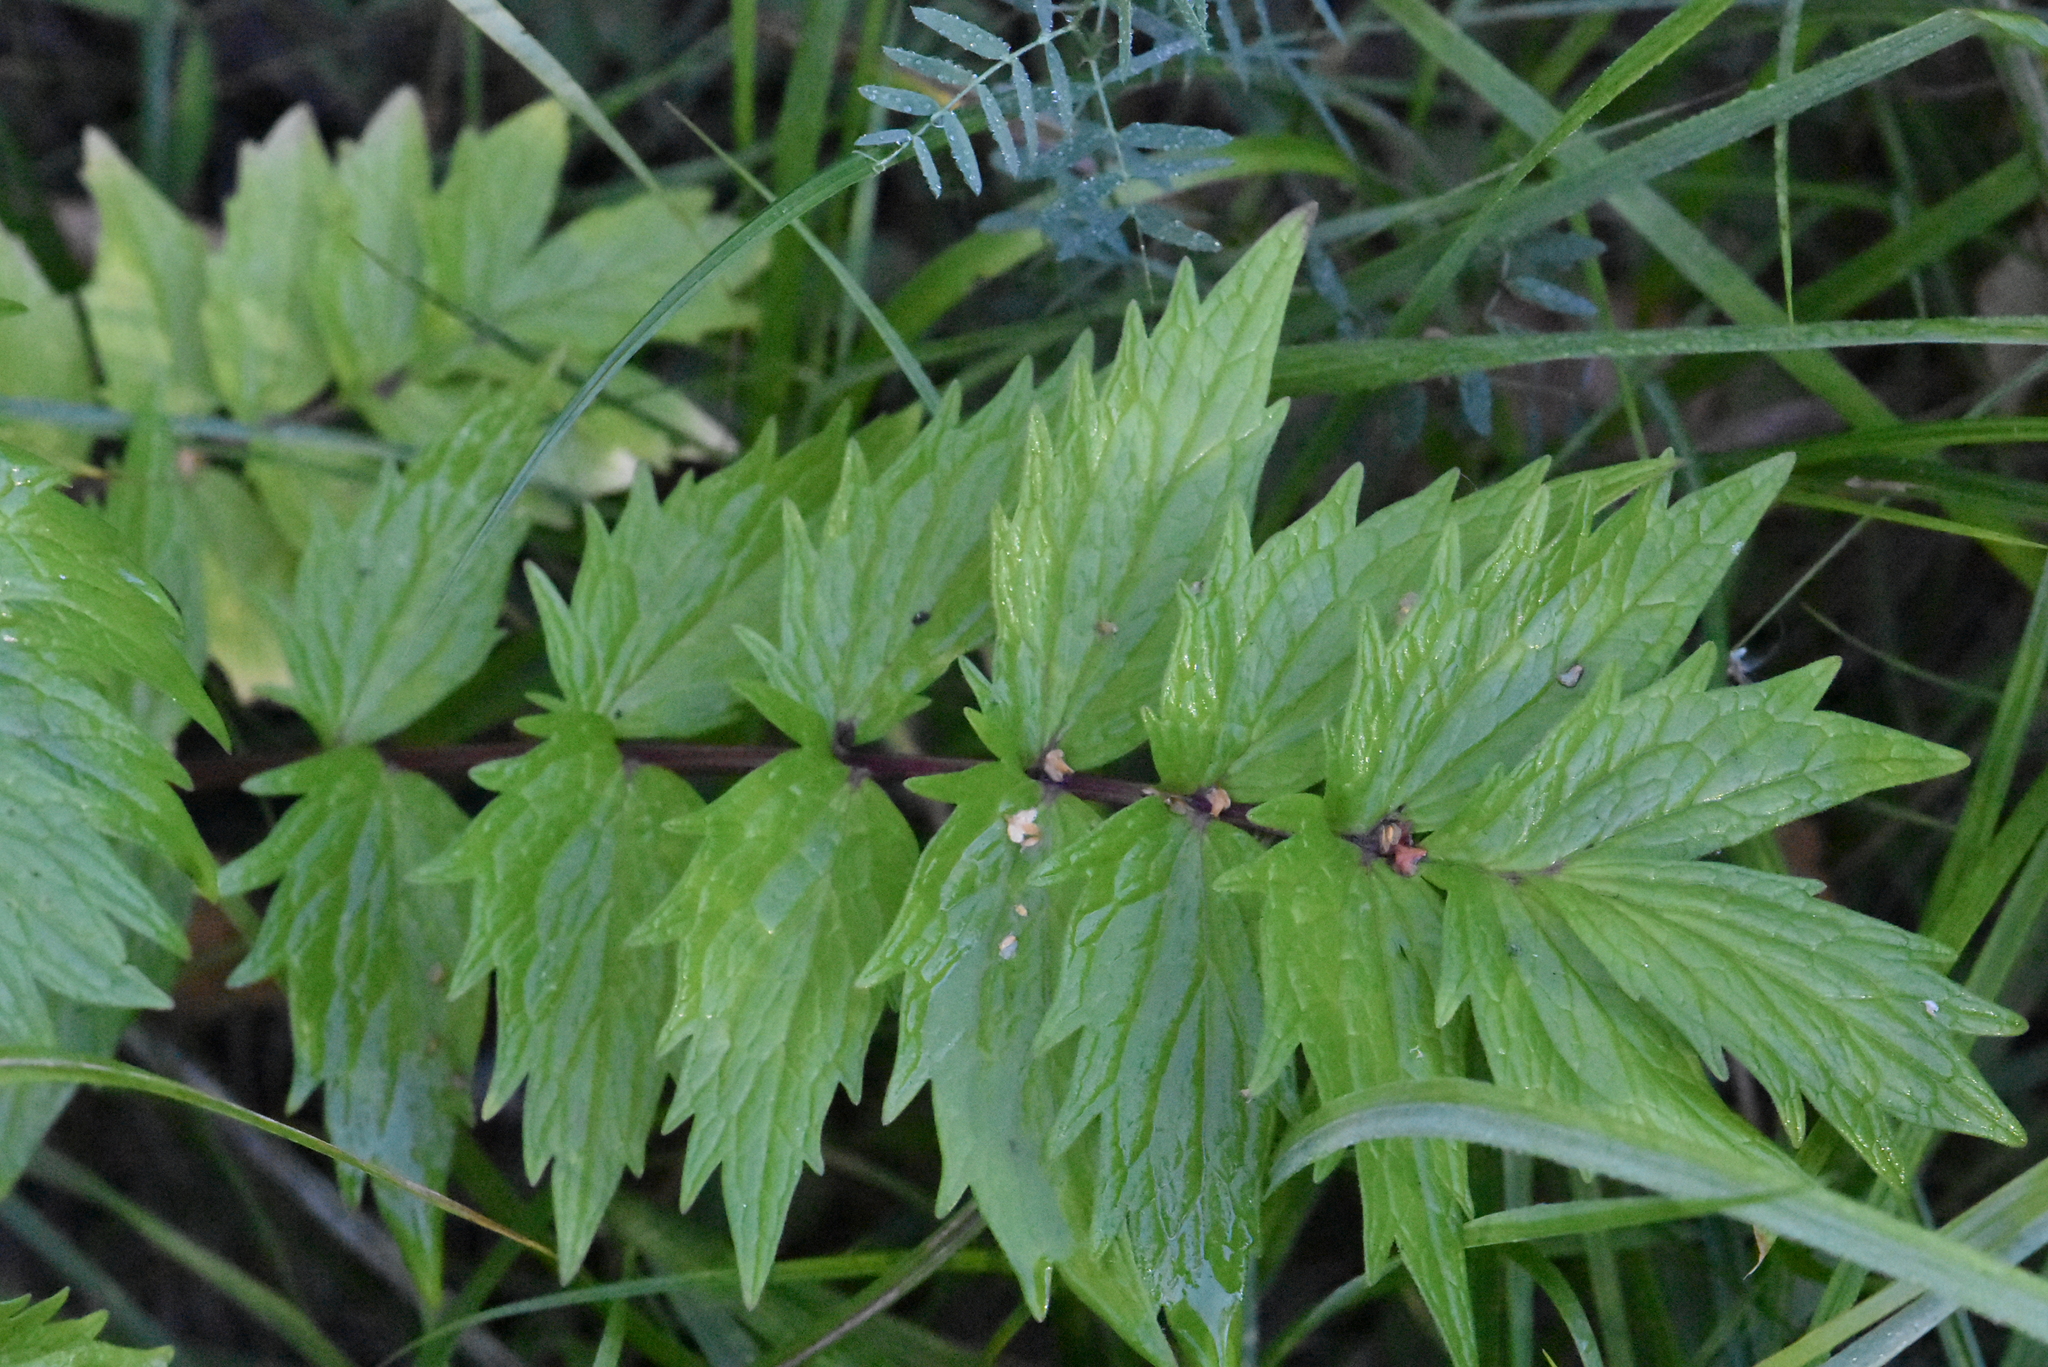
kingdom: Plantae
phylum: Tracheophyta
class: Magnoliopsida
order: Dipsacales
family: Caprifoliaceae
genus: Valeriana
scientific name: Valeriana officinalis
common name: Common valerian
